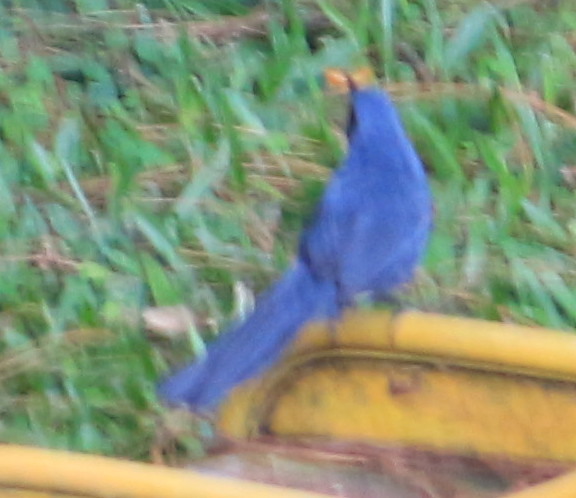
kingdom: Animalia
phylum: Chordata
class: Aves
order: Passeriformes
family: Mimidae
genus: Melanotis
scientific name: Melanotis hypoleucus
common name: Blue-and-white mockingbird
